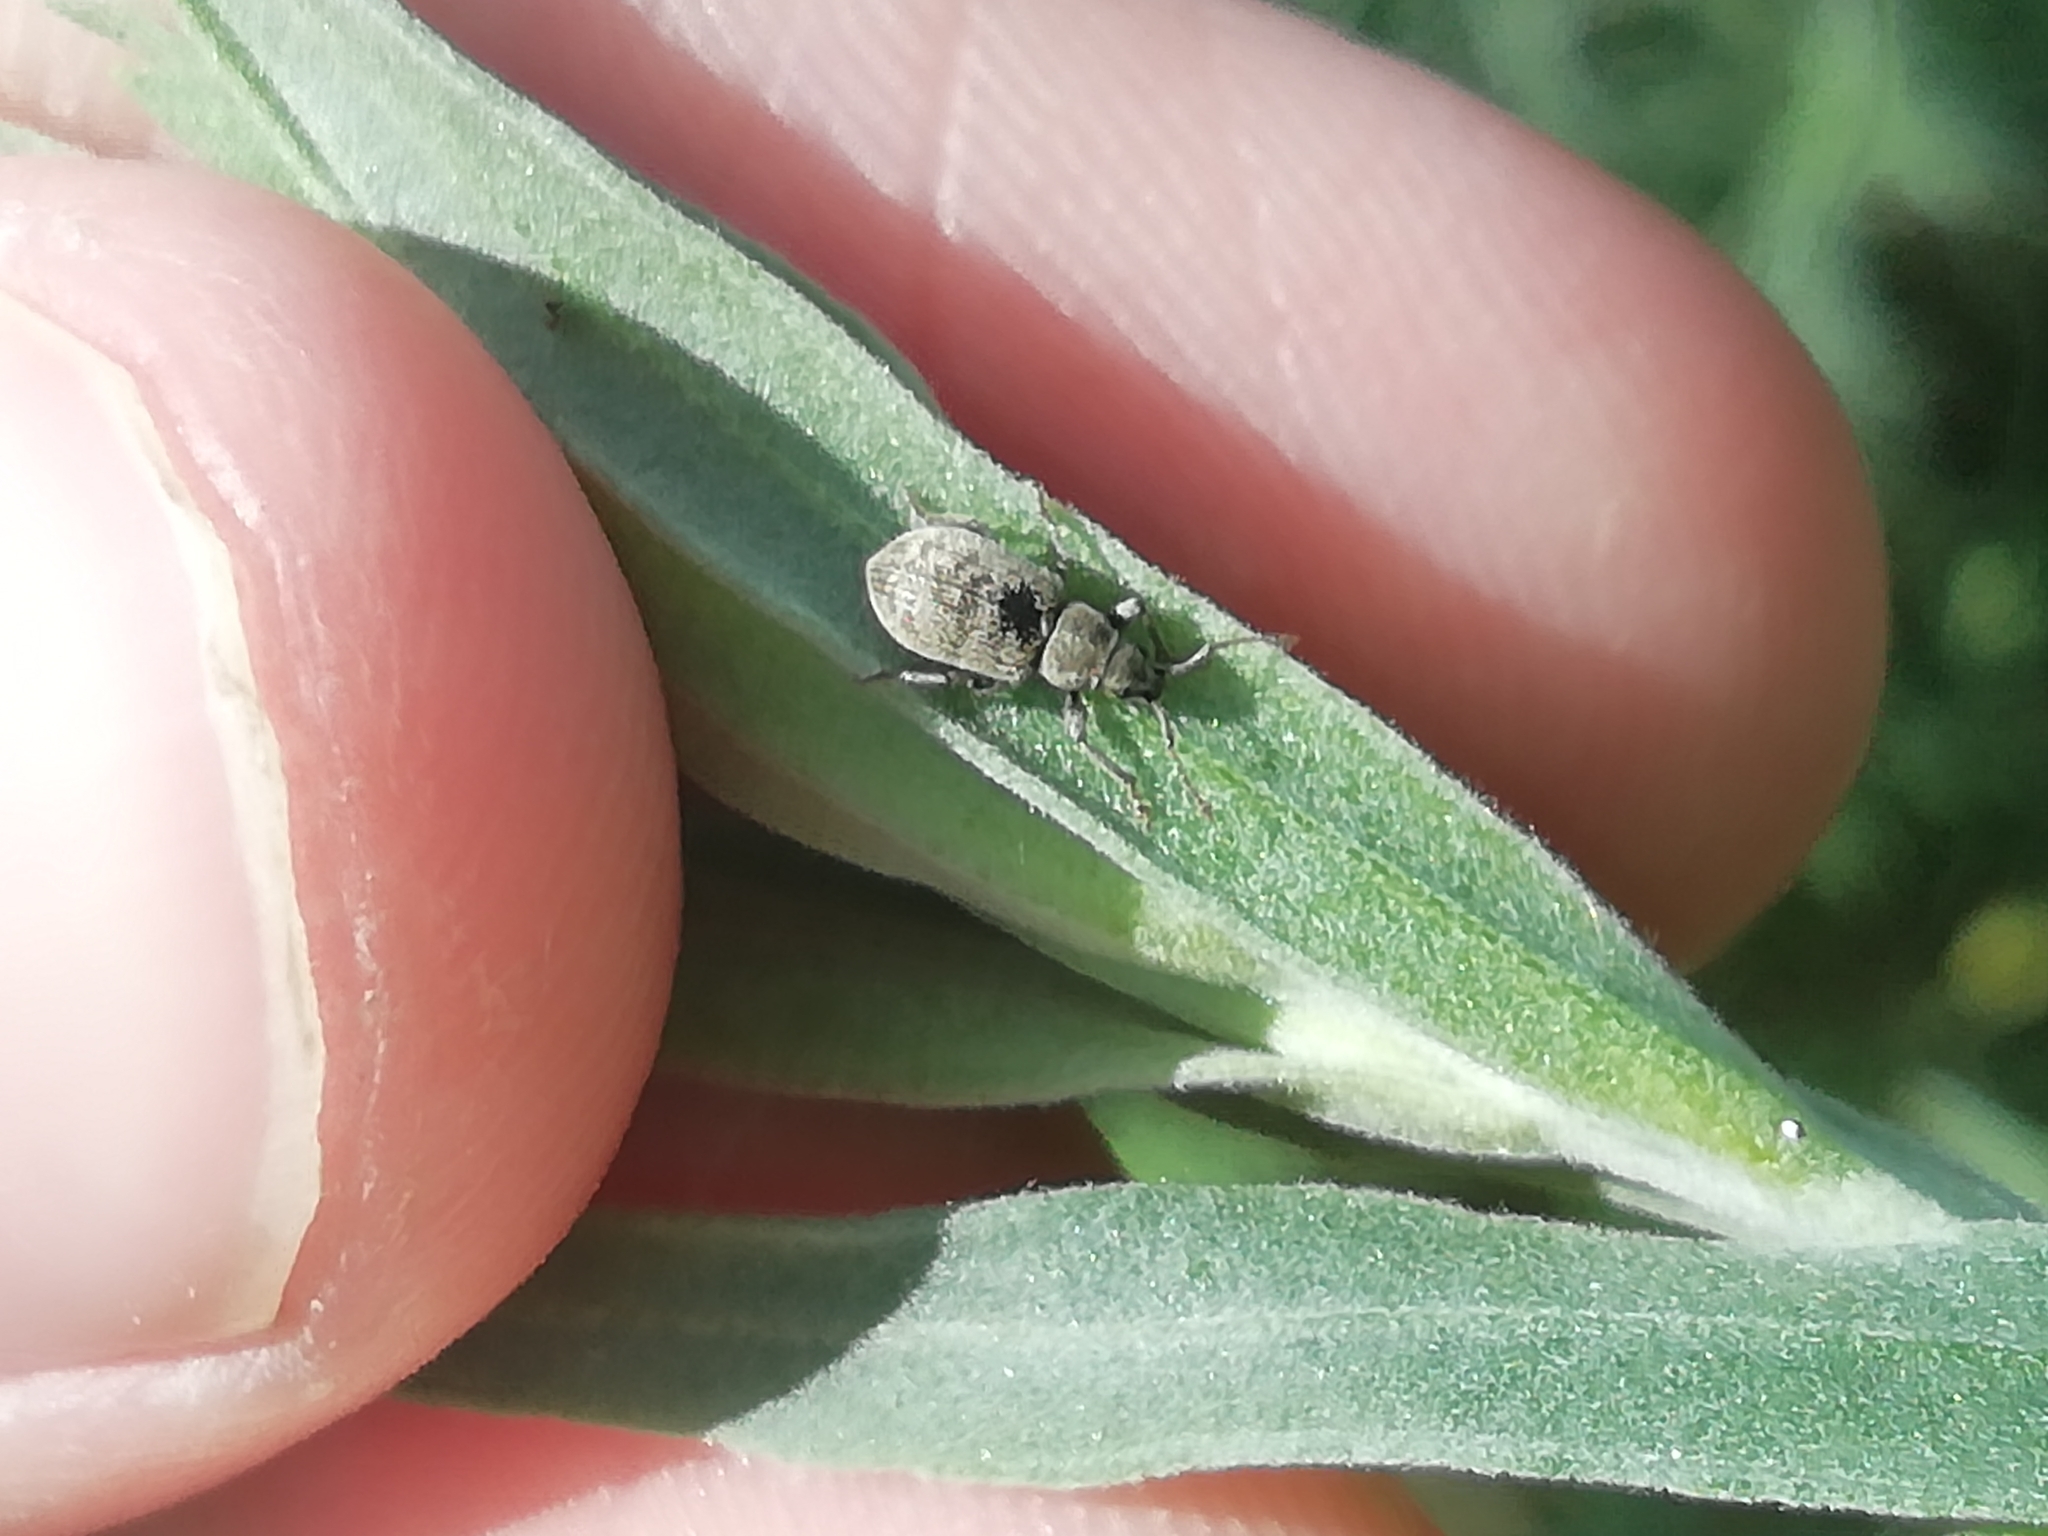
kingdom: Animalia
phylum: Arthropoda
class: Insecta
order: Coleoptera
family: Curculionidae
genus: Phyllobius
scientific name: Phyllobius brevis
